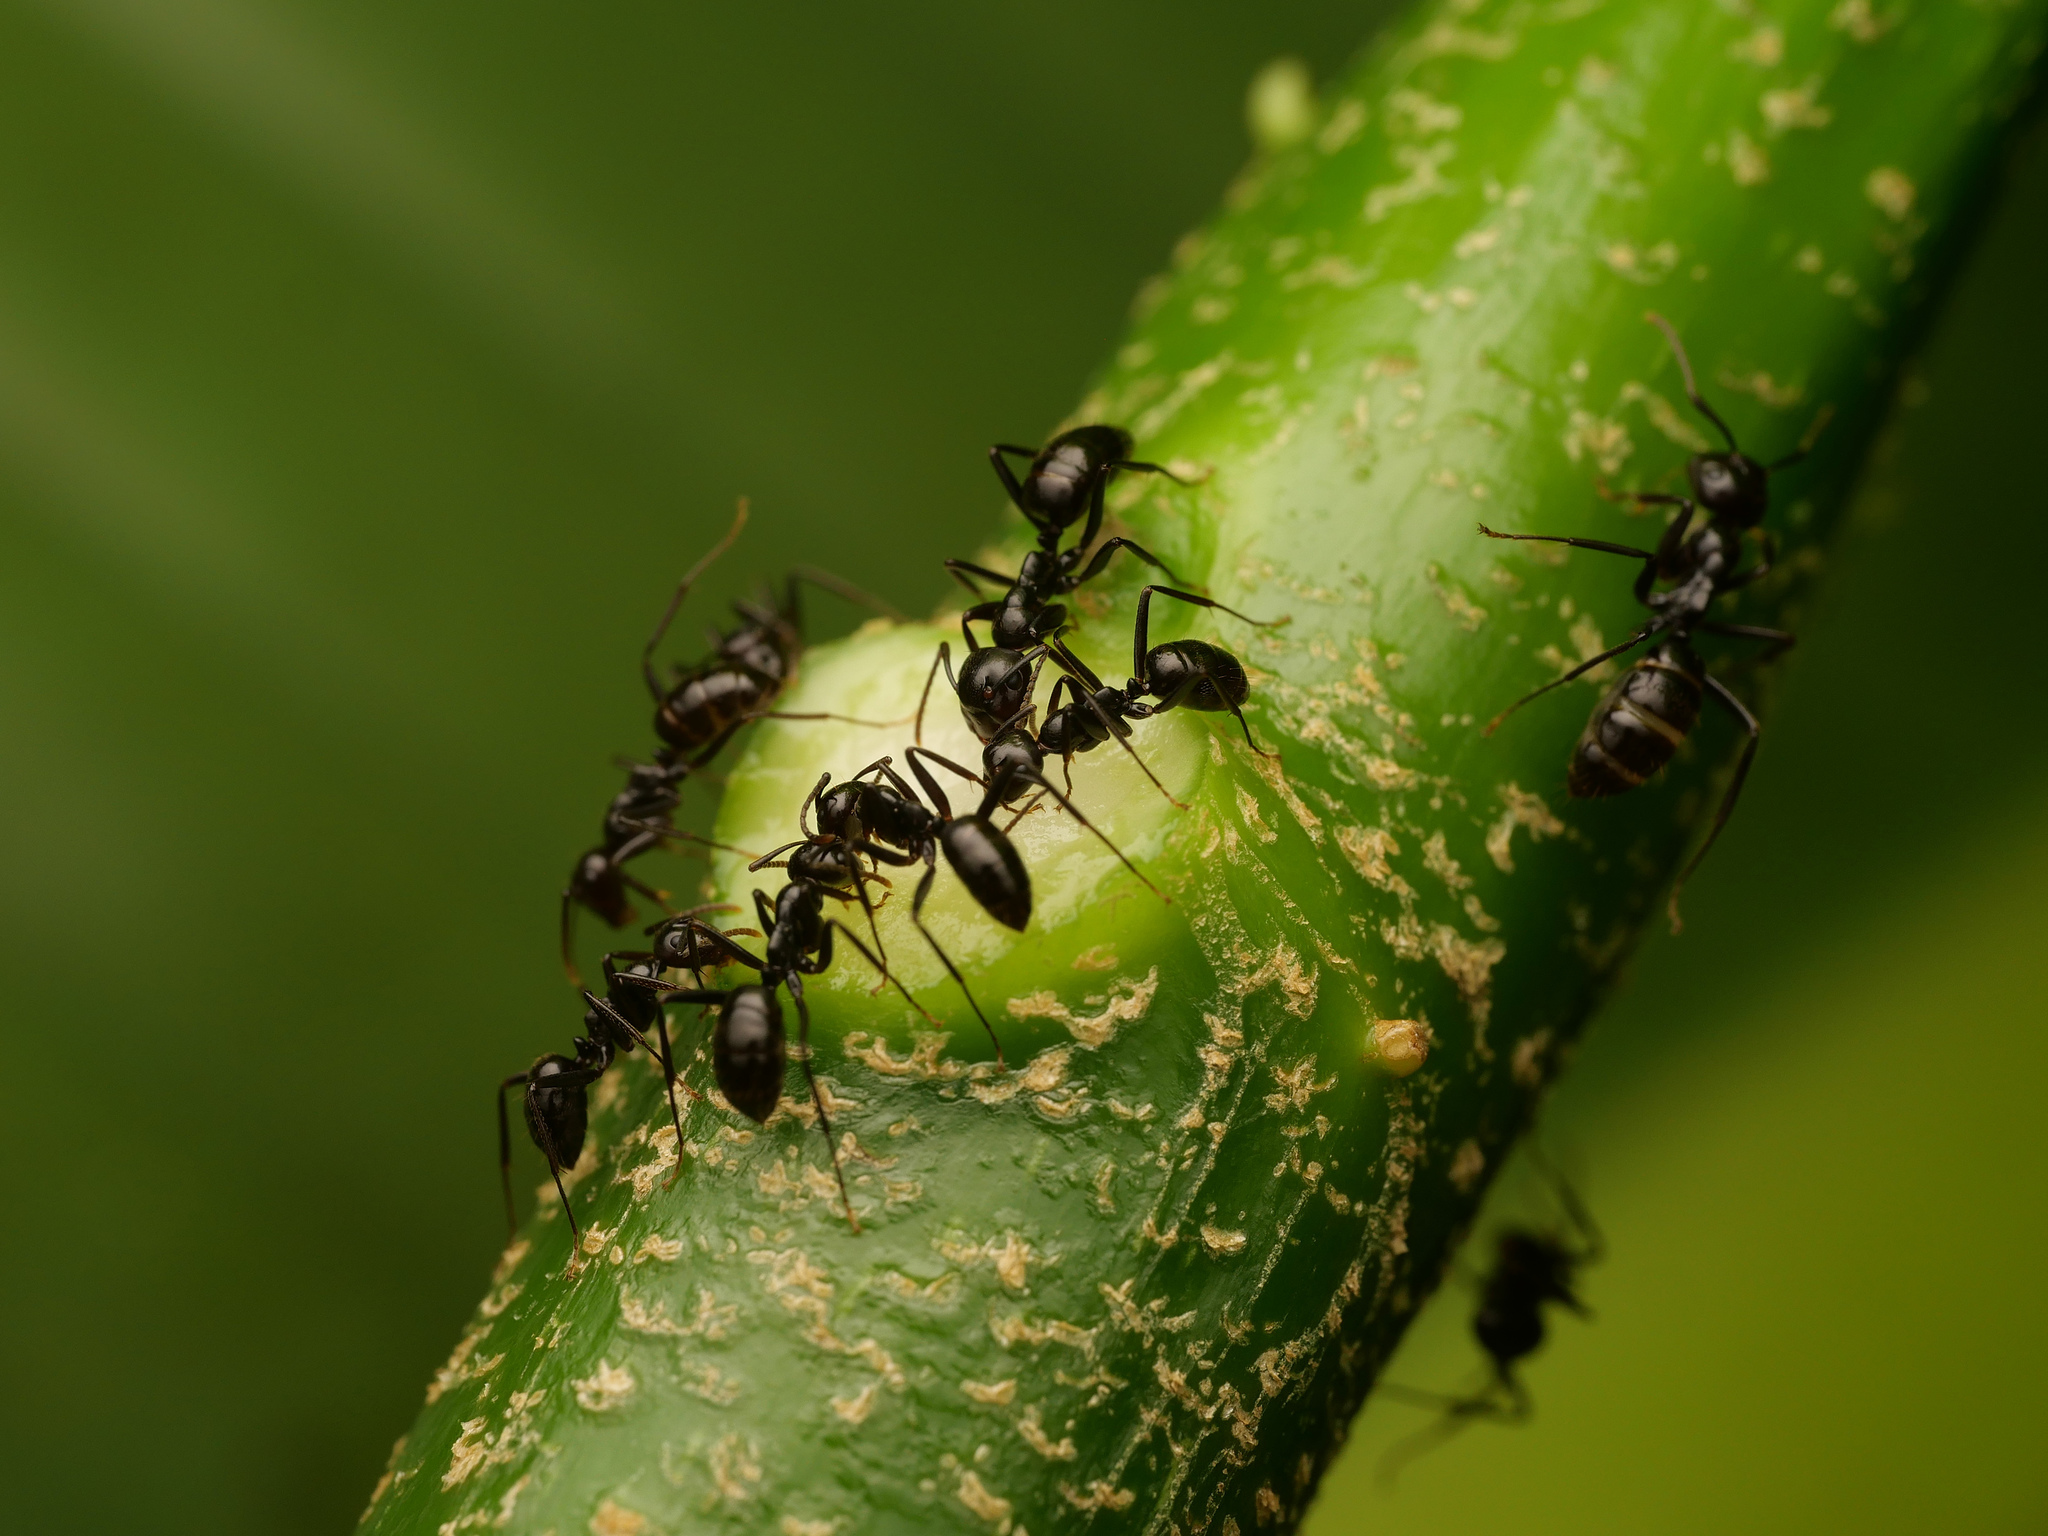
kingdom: Animalia
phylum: Arthropoda
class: Insecta
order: Hymenoptera
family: Formicidae
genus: Colobopsis
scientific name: Colobopsis quadriceps
